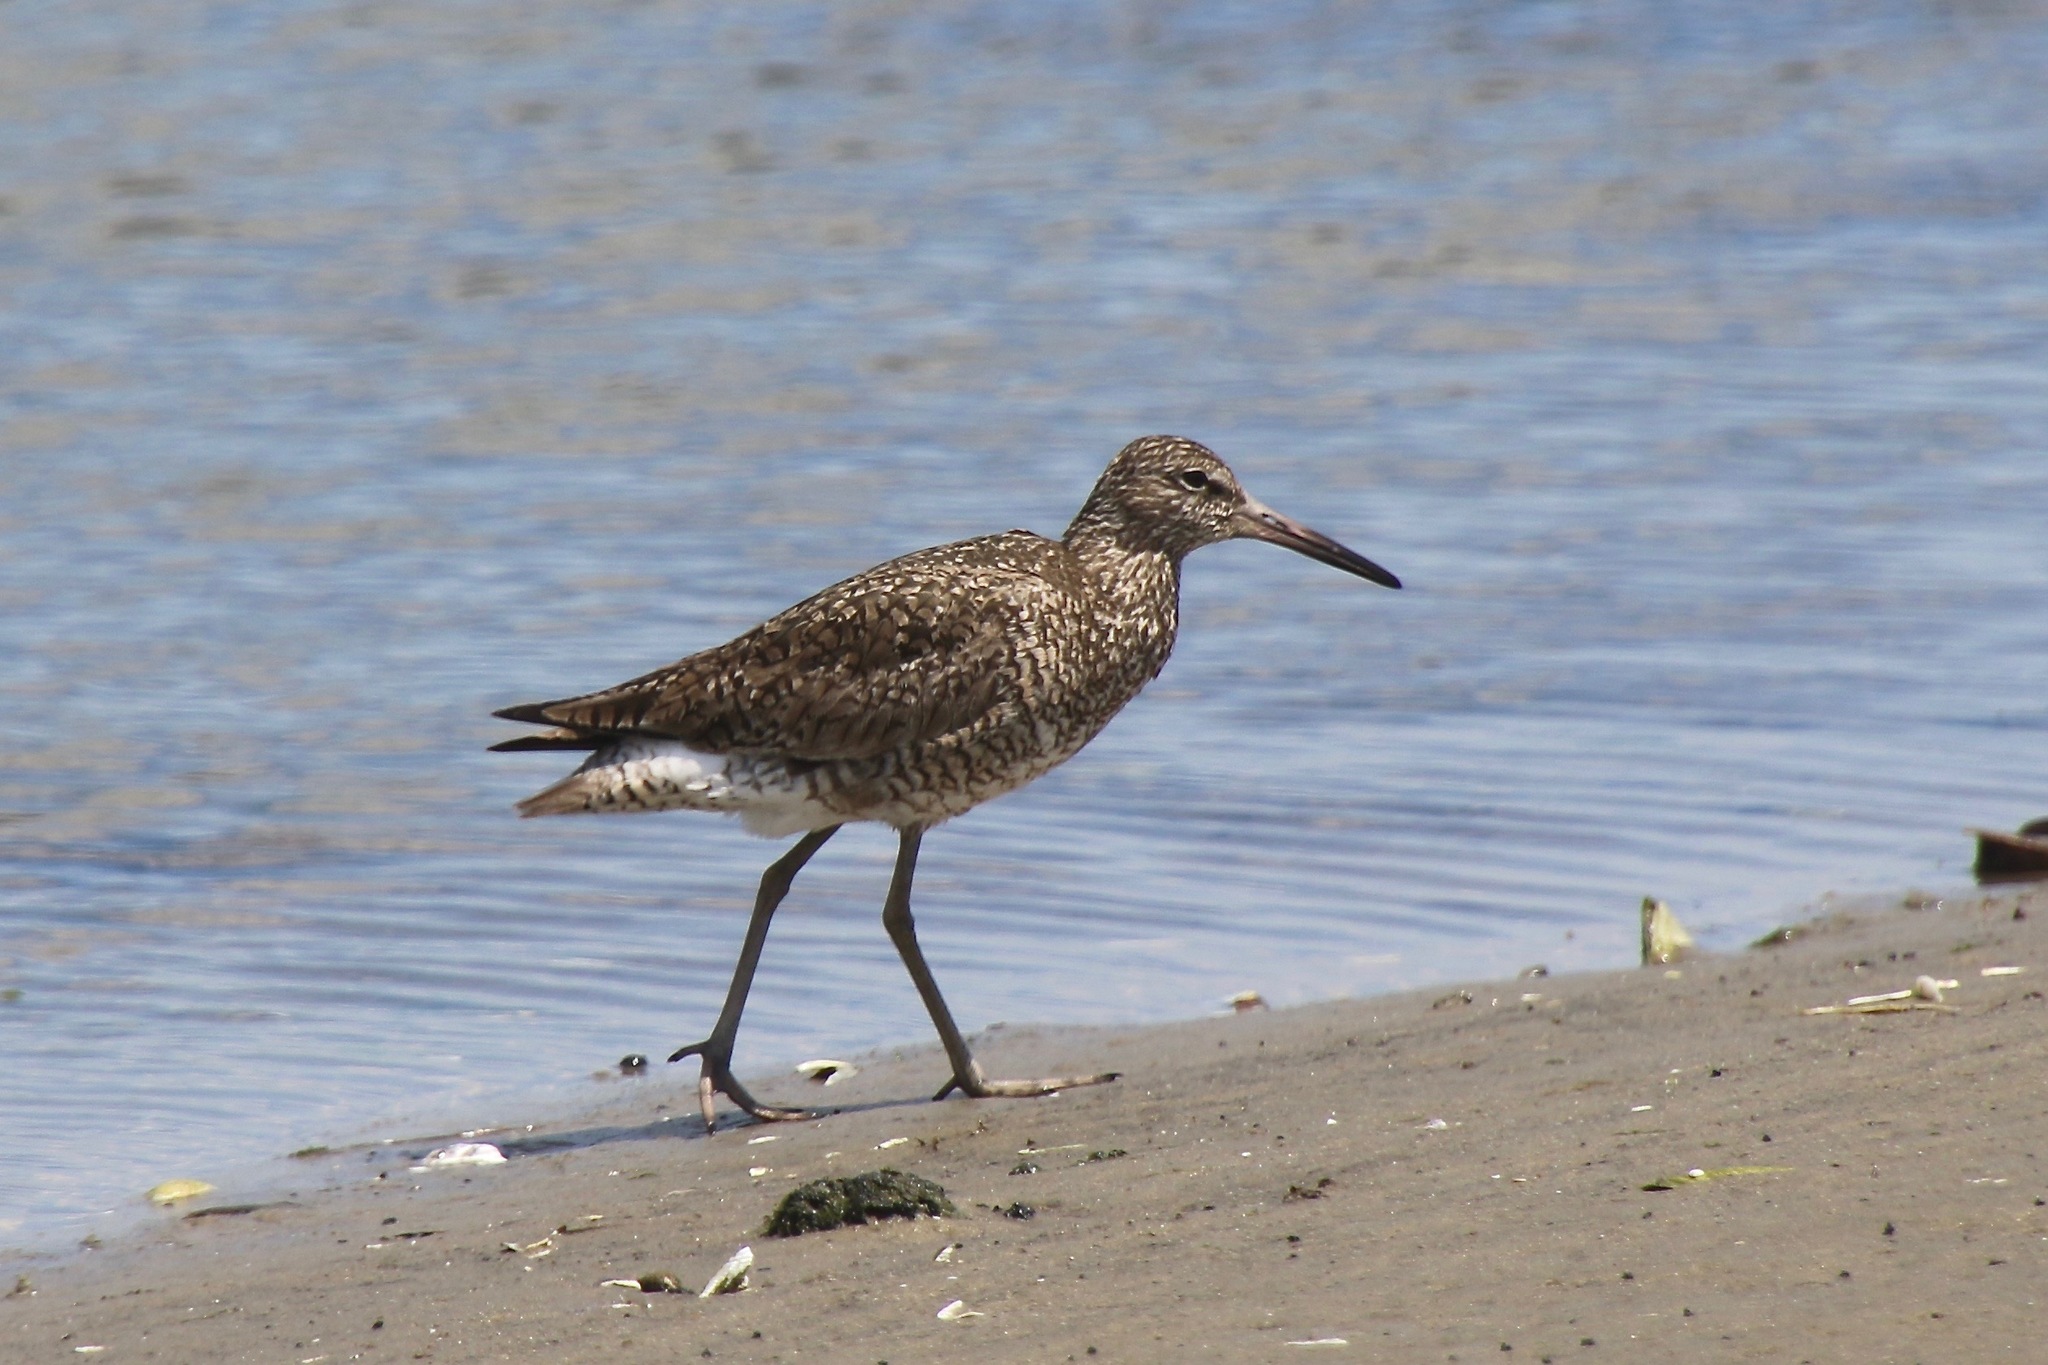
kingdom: Animalia
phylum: Chordata
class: Aves
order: Charadriiformes
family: Scolopacidae
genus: Tringa
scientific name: Tringa semipalmata
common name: Willet
